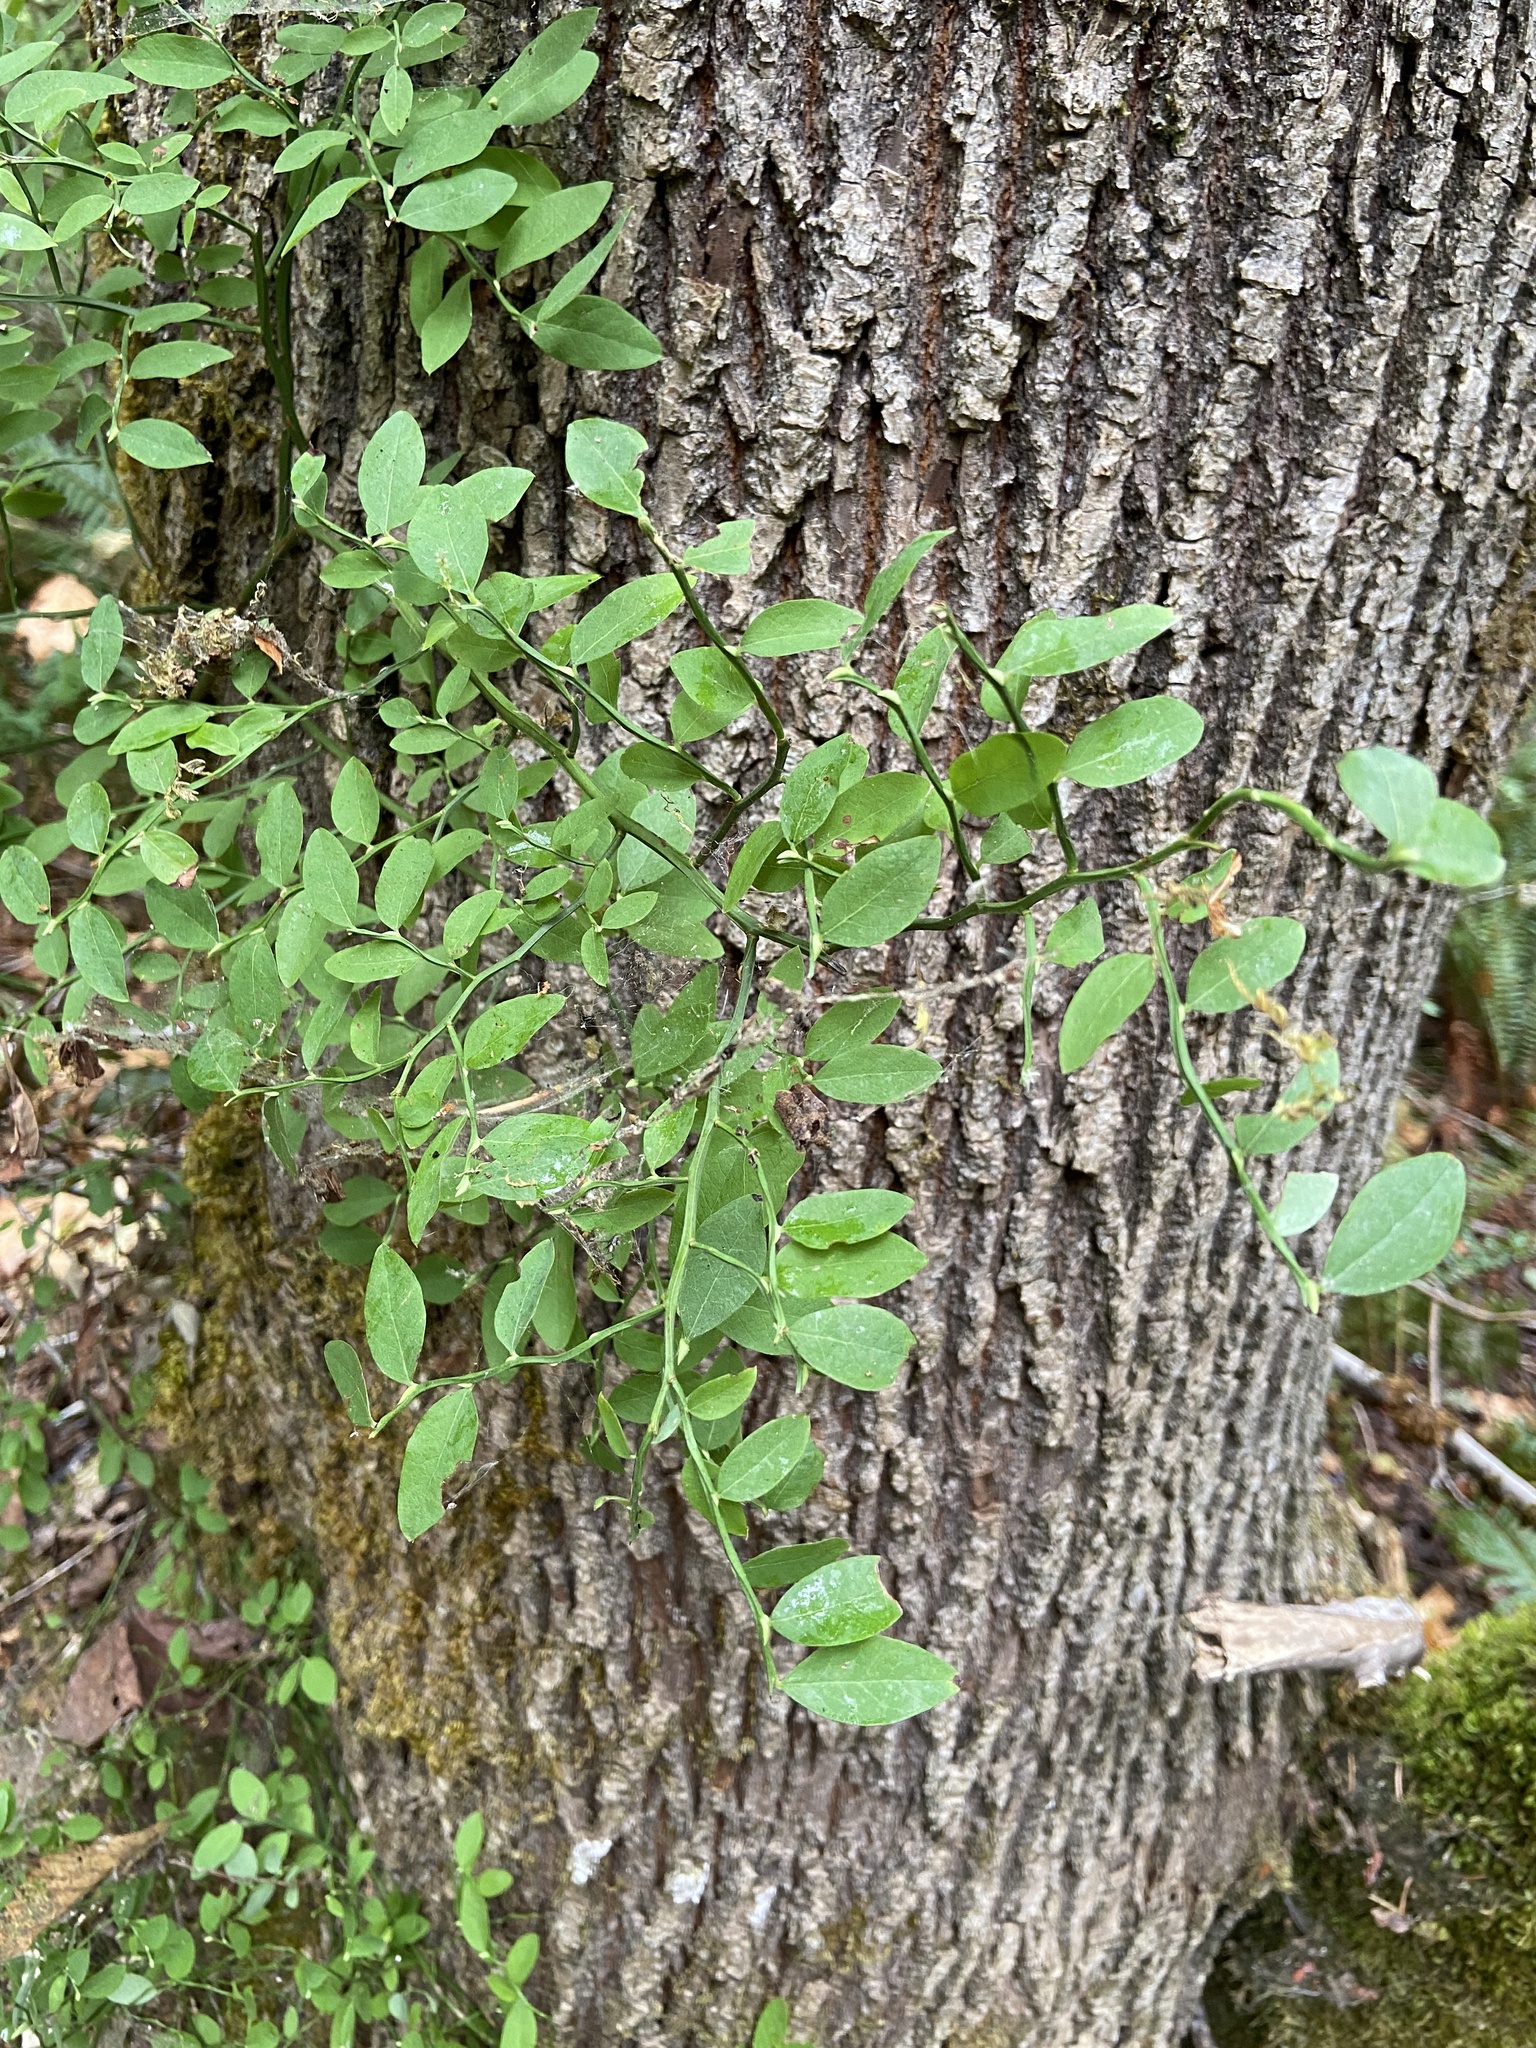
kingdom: Plantae
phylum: Tracheophyta
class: Magnoliopsida
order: Ericales
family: Ericaceae
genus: Vaccinium
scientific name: Vaccinium parvifolium
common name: Red-huckleberry
